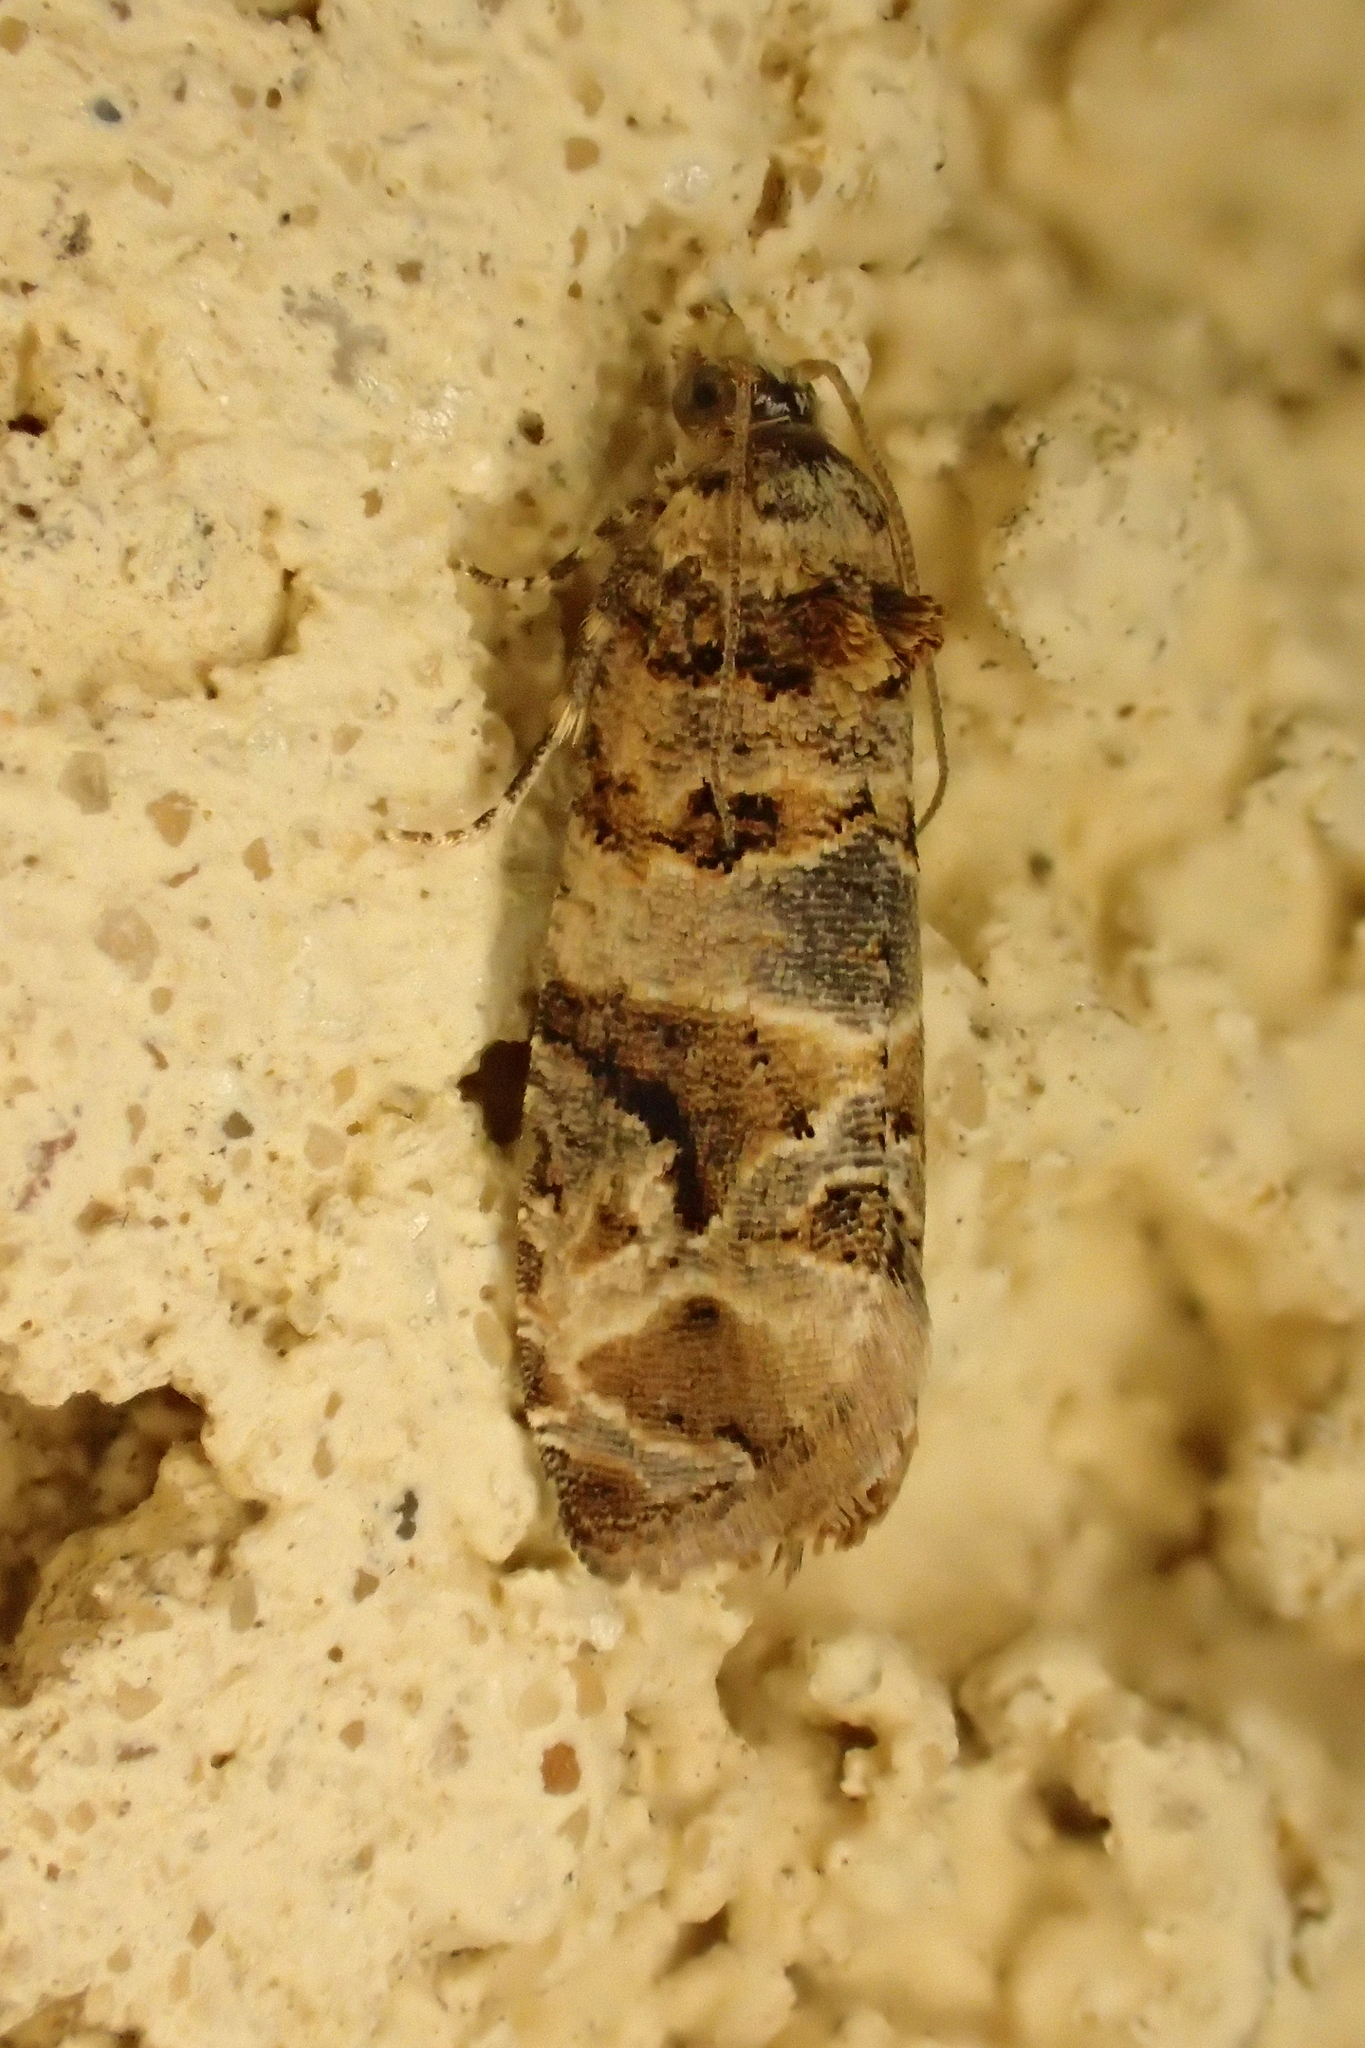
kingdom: Animalia
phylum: Arthropoda
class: Insecta
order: Lepidoptera
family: Tortricidae
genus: Lobesia
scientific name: Lobesia botrana
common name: European vine moth
